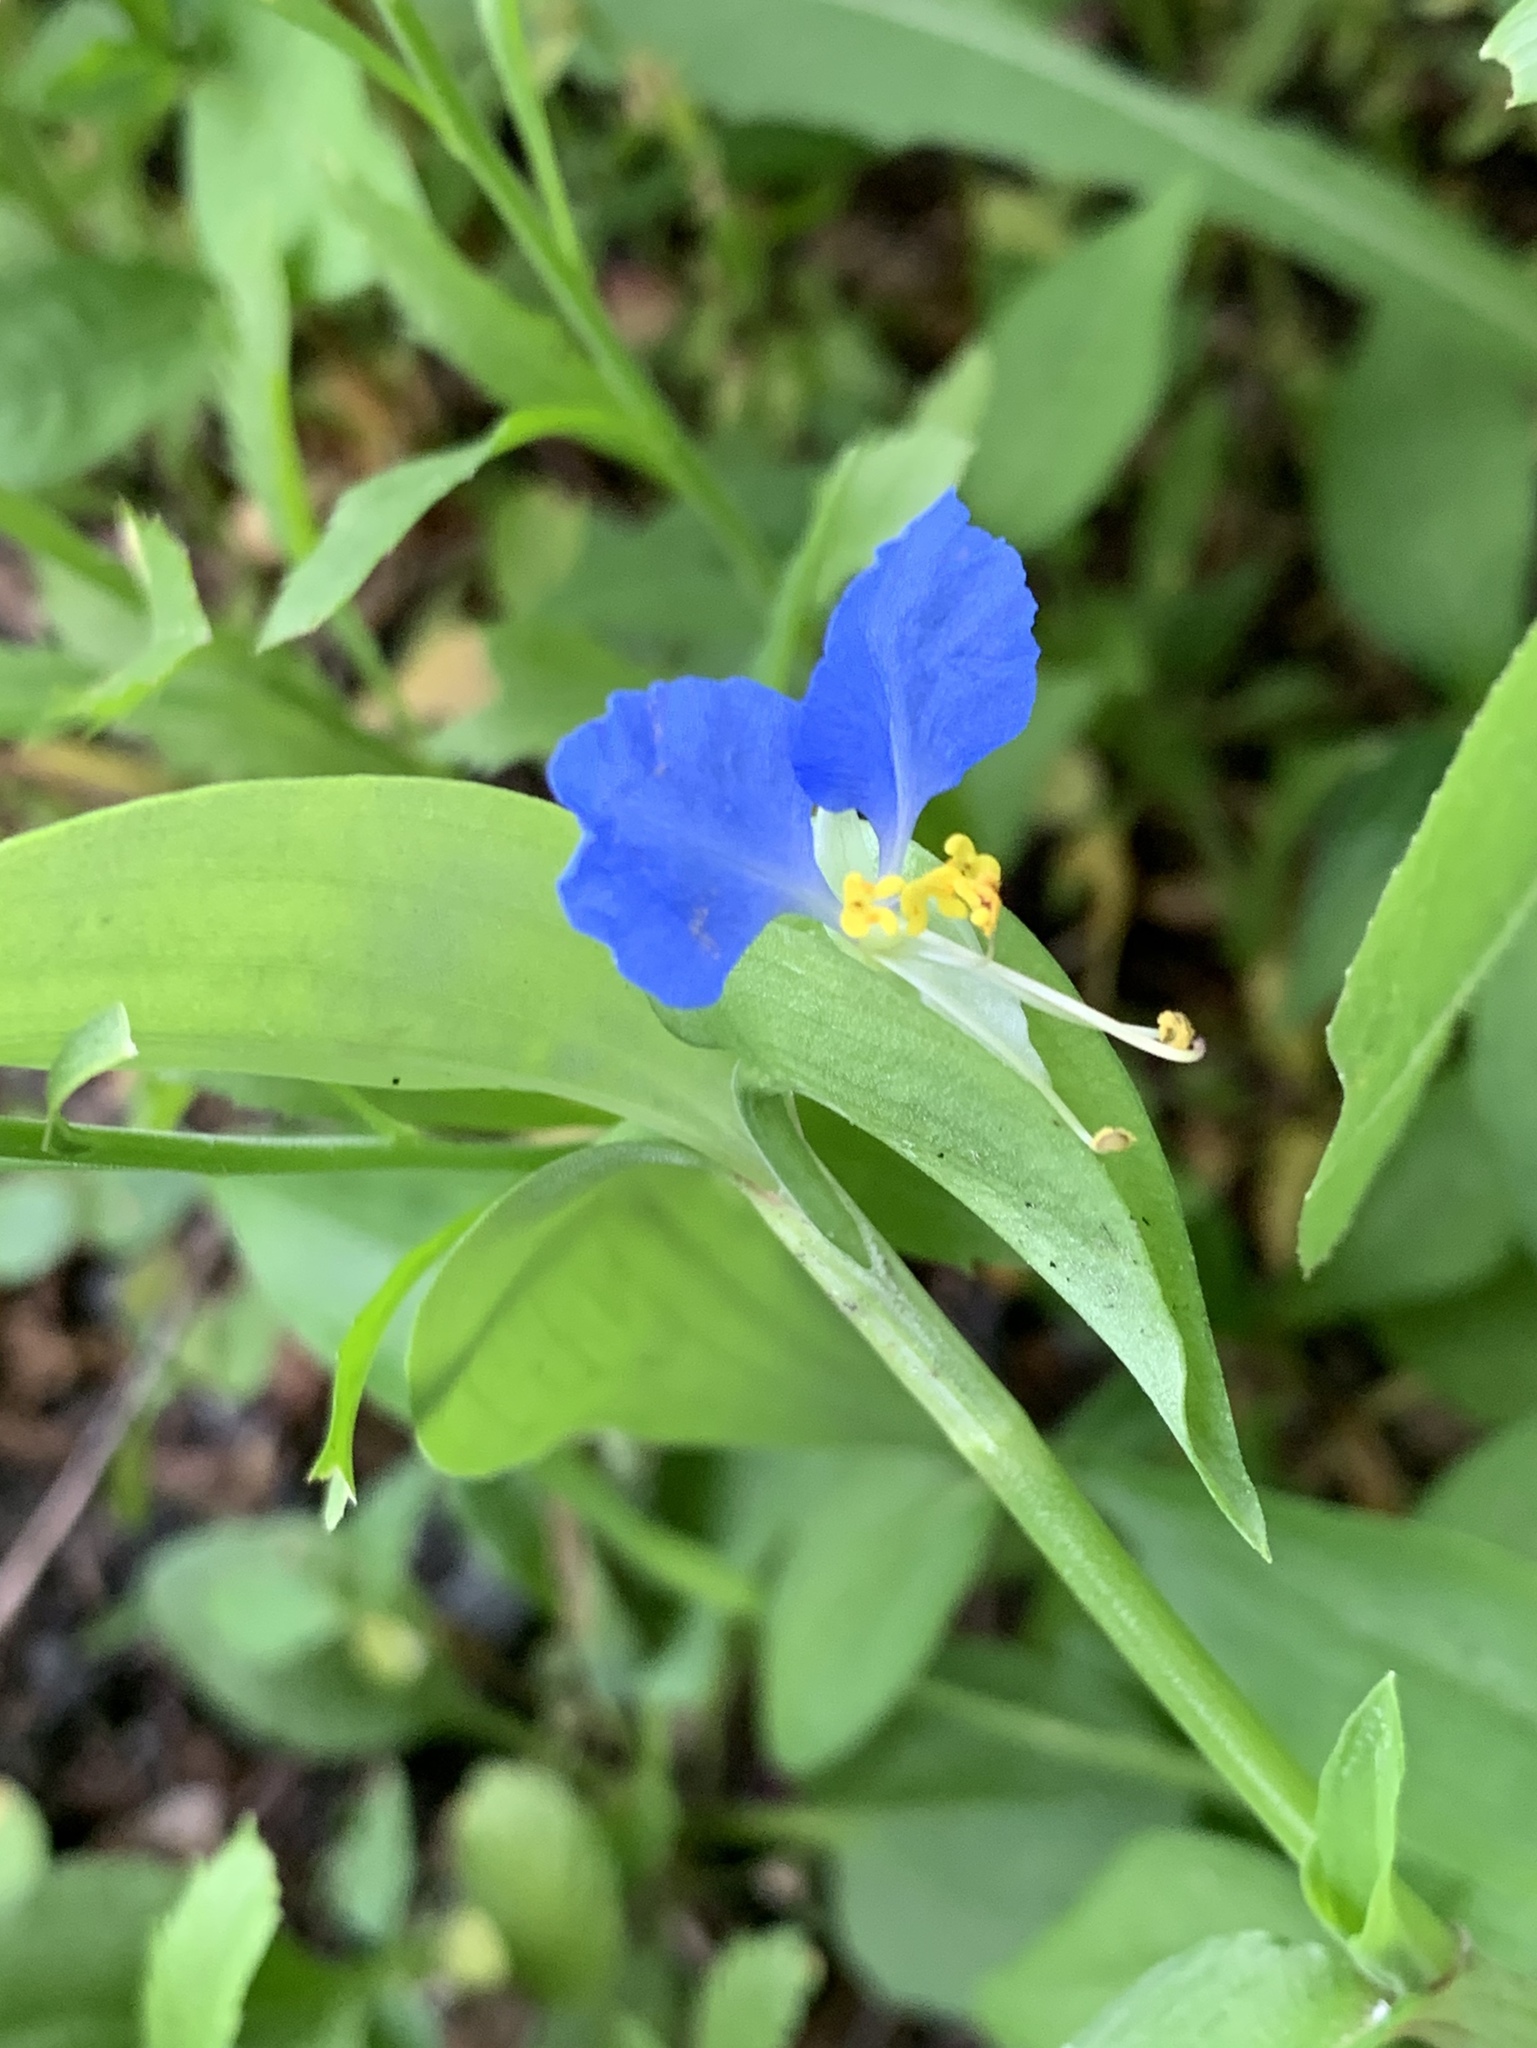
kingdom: Plantae
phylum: Tracheophyta
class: Liliopsida
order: Commelinales
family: Commelinaceae
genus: Commelina
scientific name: Commelina communis
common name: Asiatic dayflower
